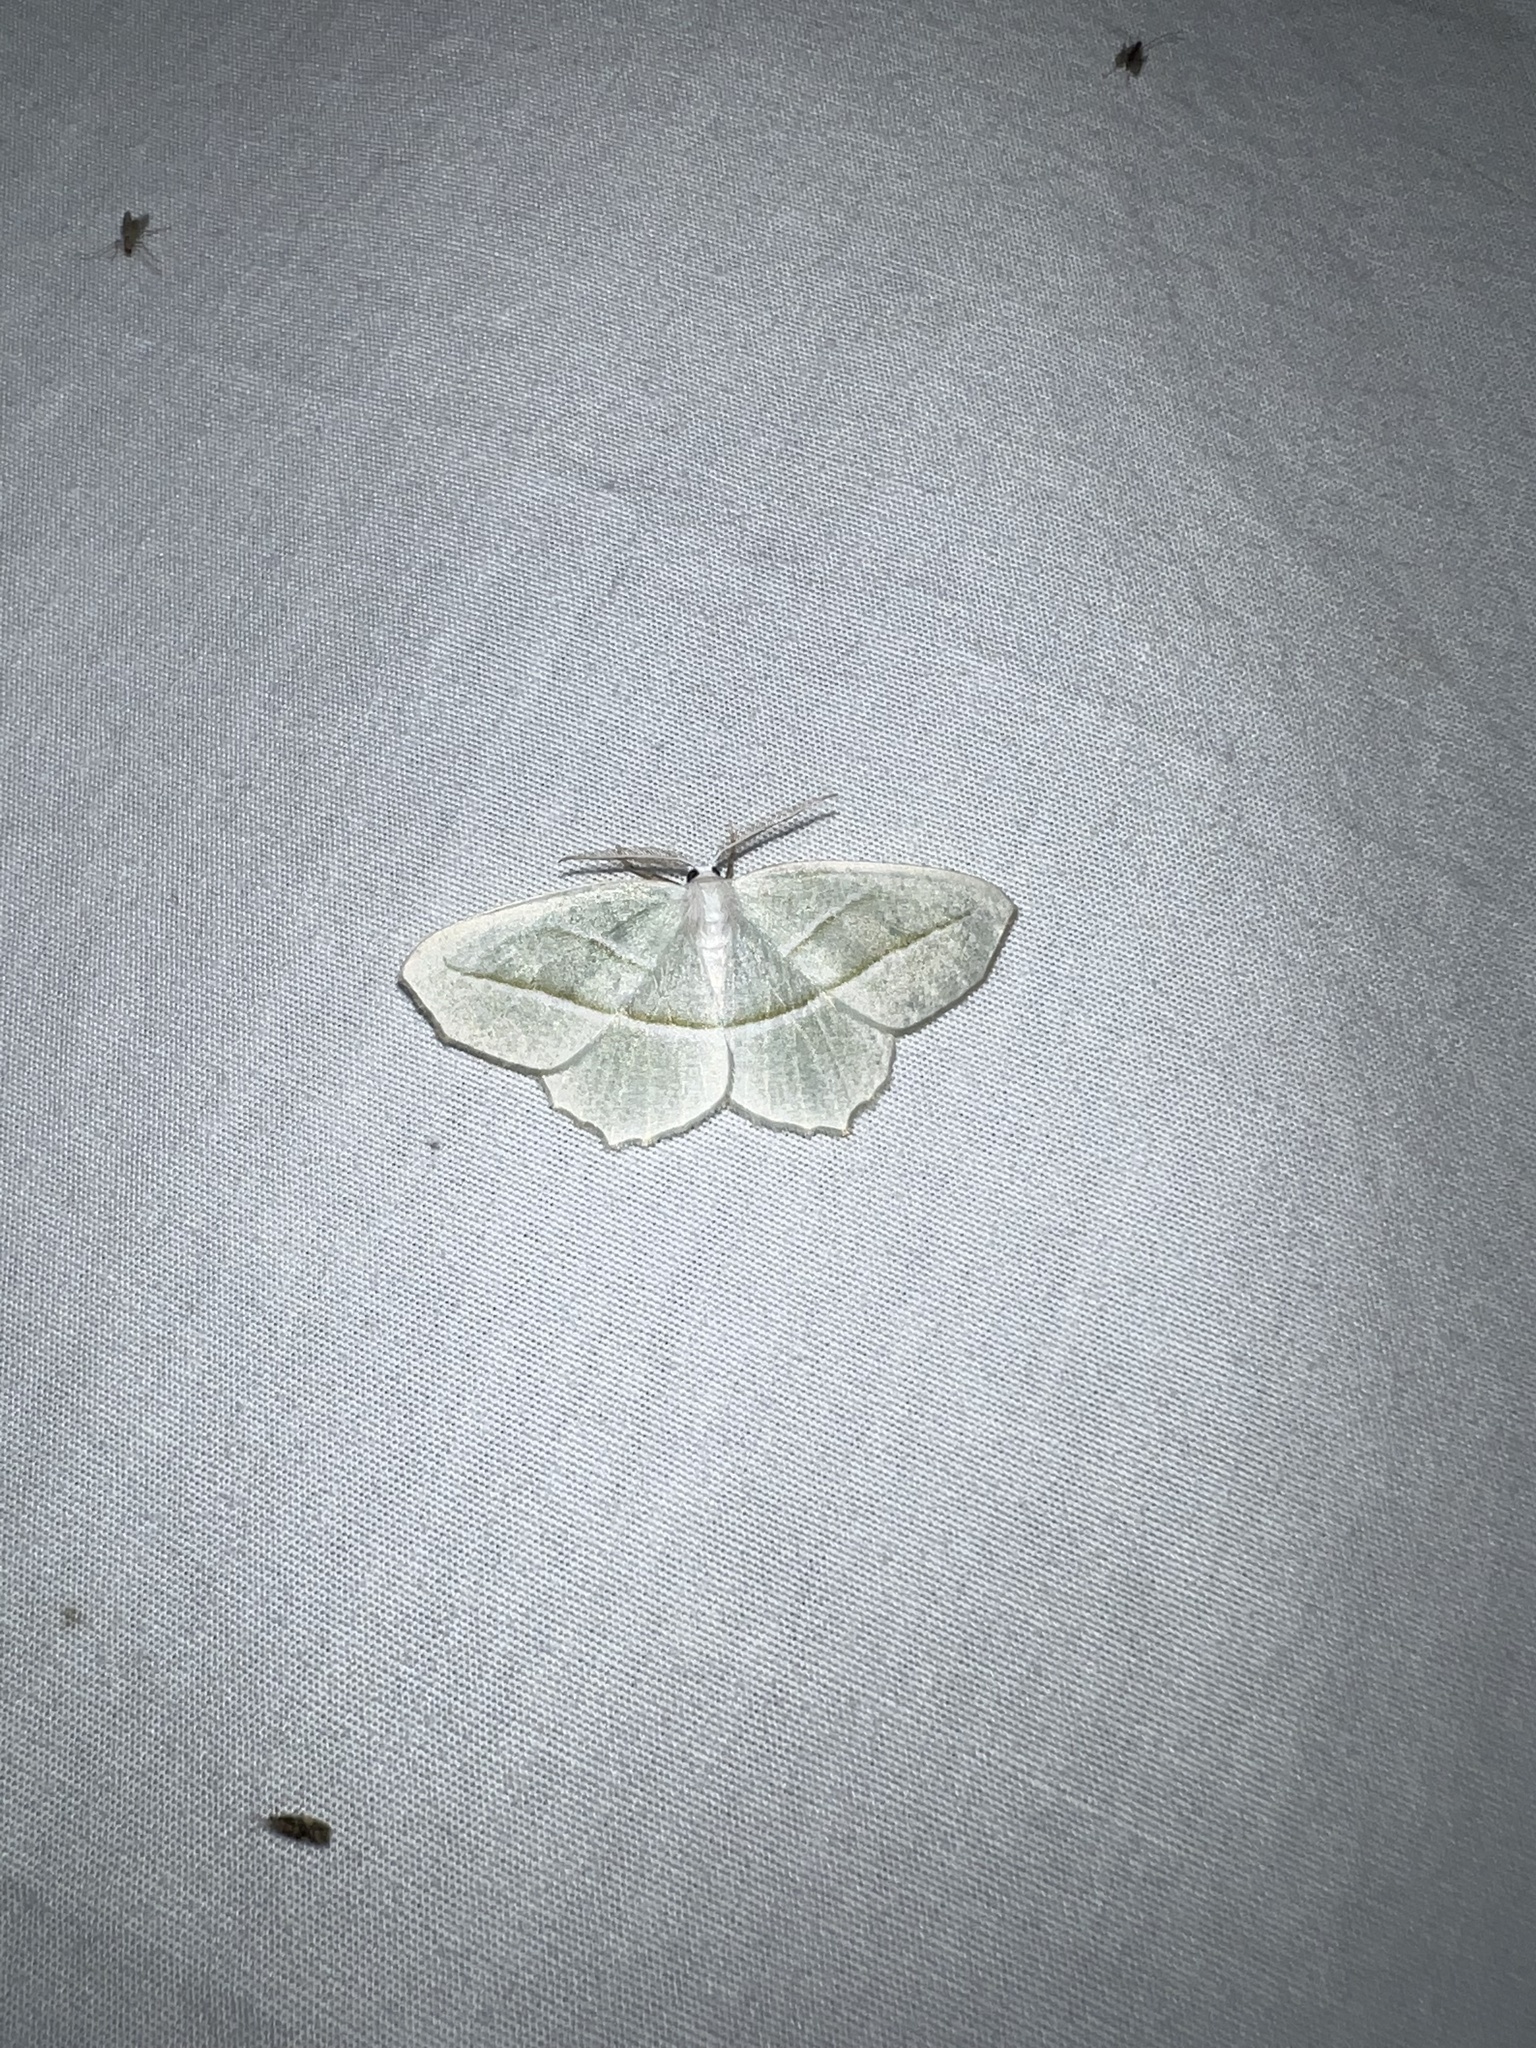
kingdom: Animalia
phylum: Arthropoda
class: Insecta
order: Lepidoptera
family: Geometridae
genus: Campaea
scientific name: Campaea perlata
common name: Fringed looper
